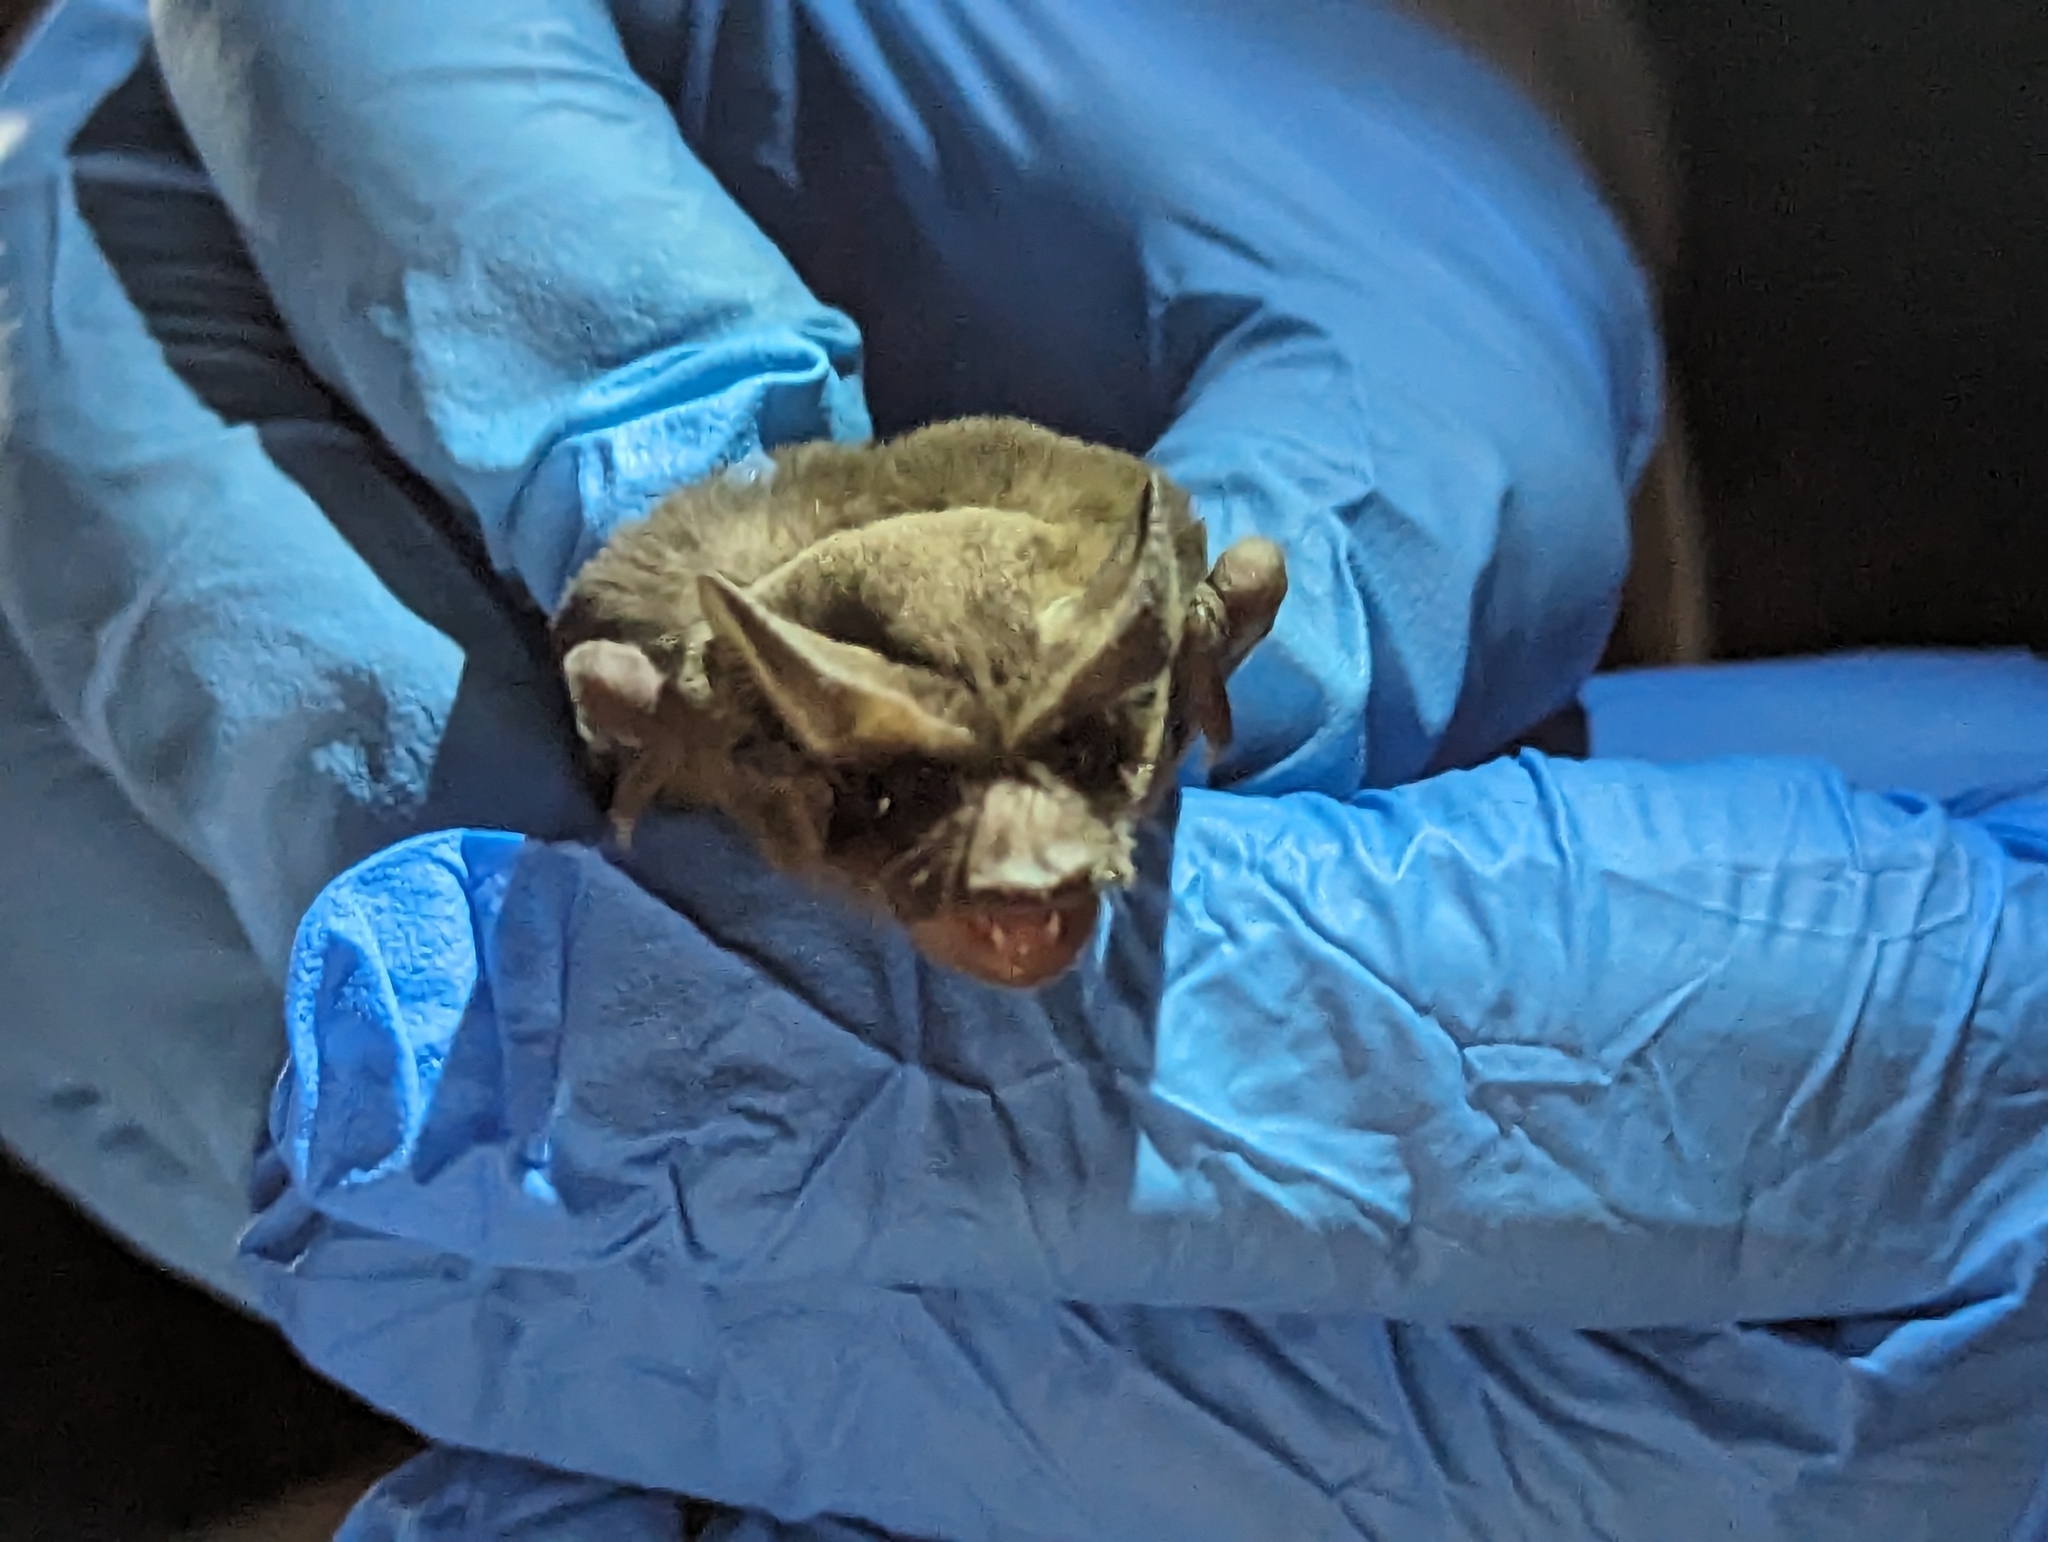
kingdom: Animalia
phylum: Chordata
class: Mammalia
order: Chiroptera
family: Molossidae
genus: Tadarida
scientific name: Tadarida brasiliensis
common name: Mexican free-tailed bat
